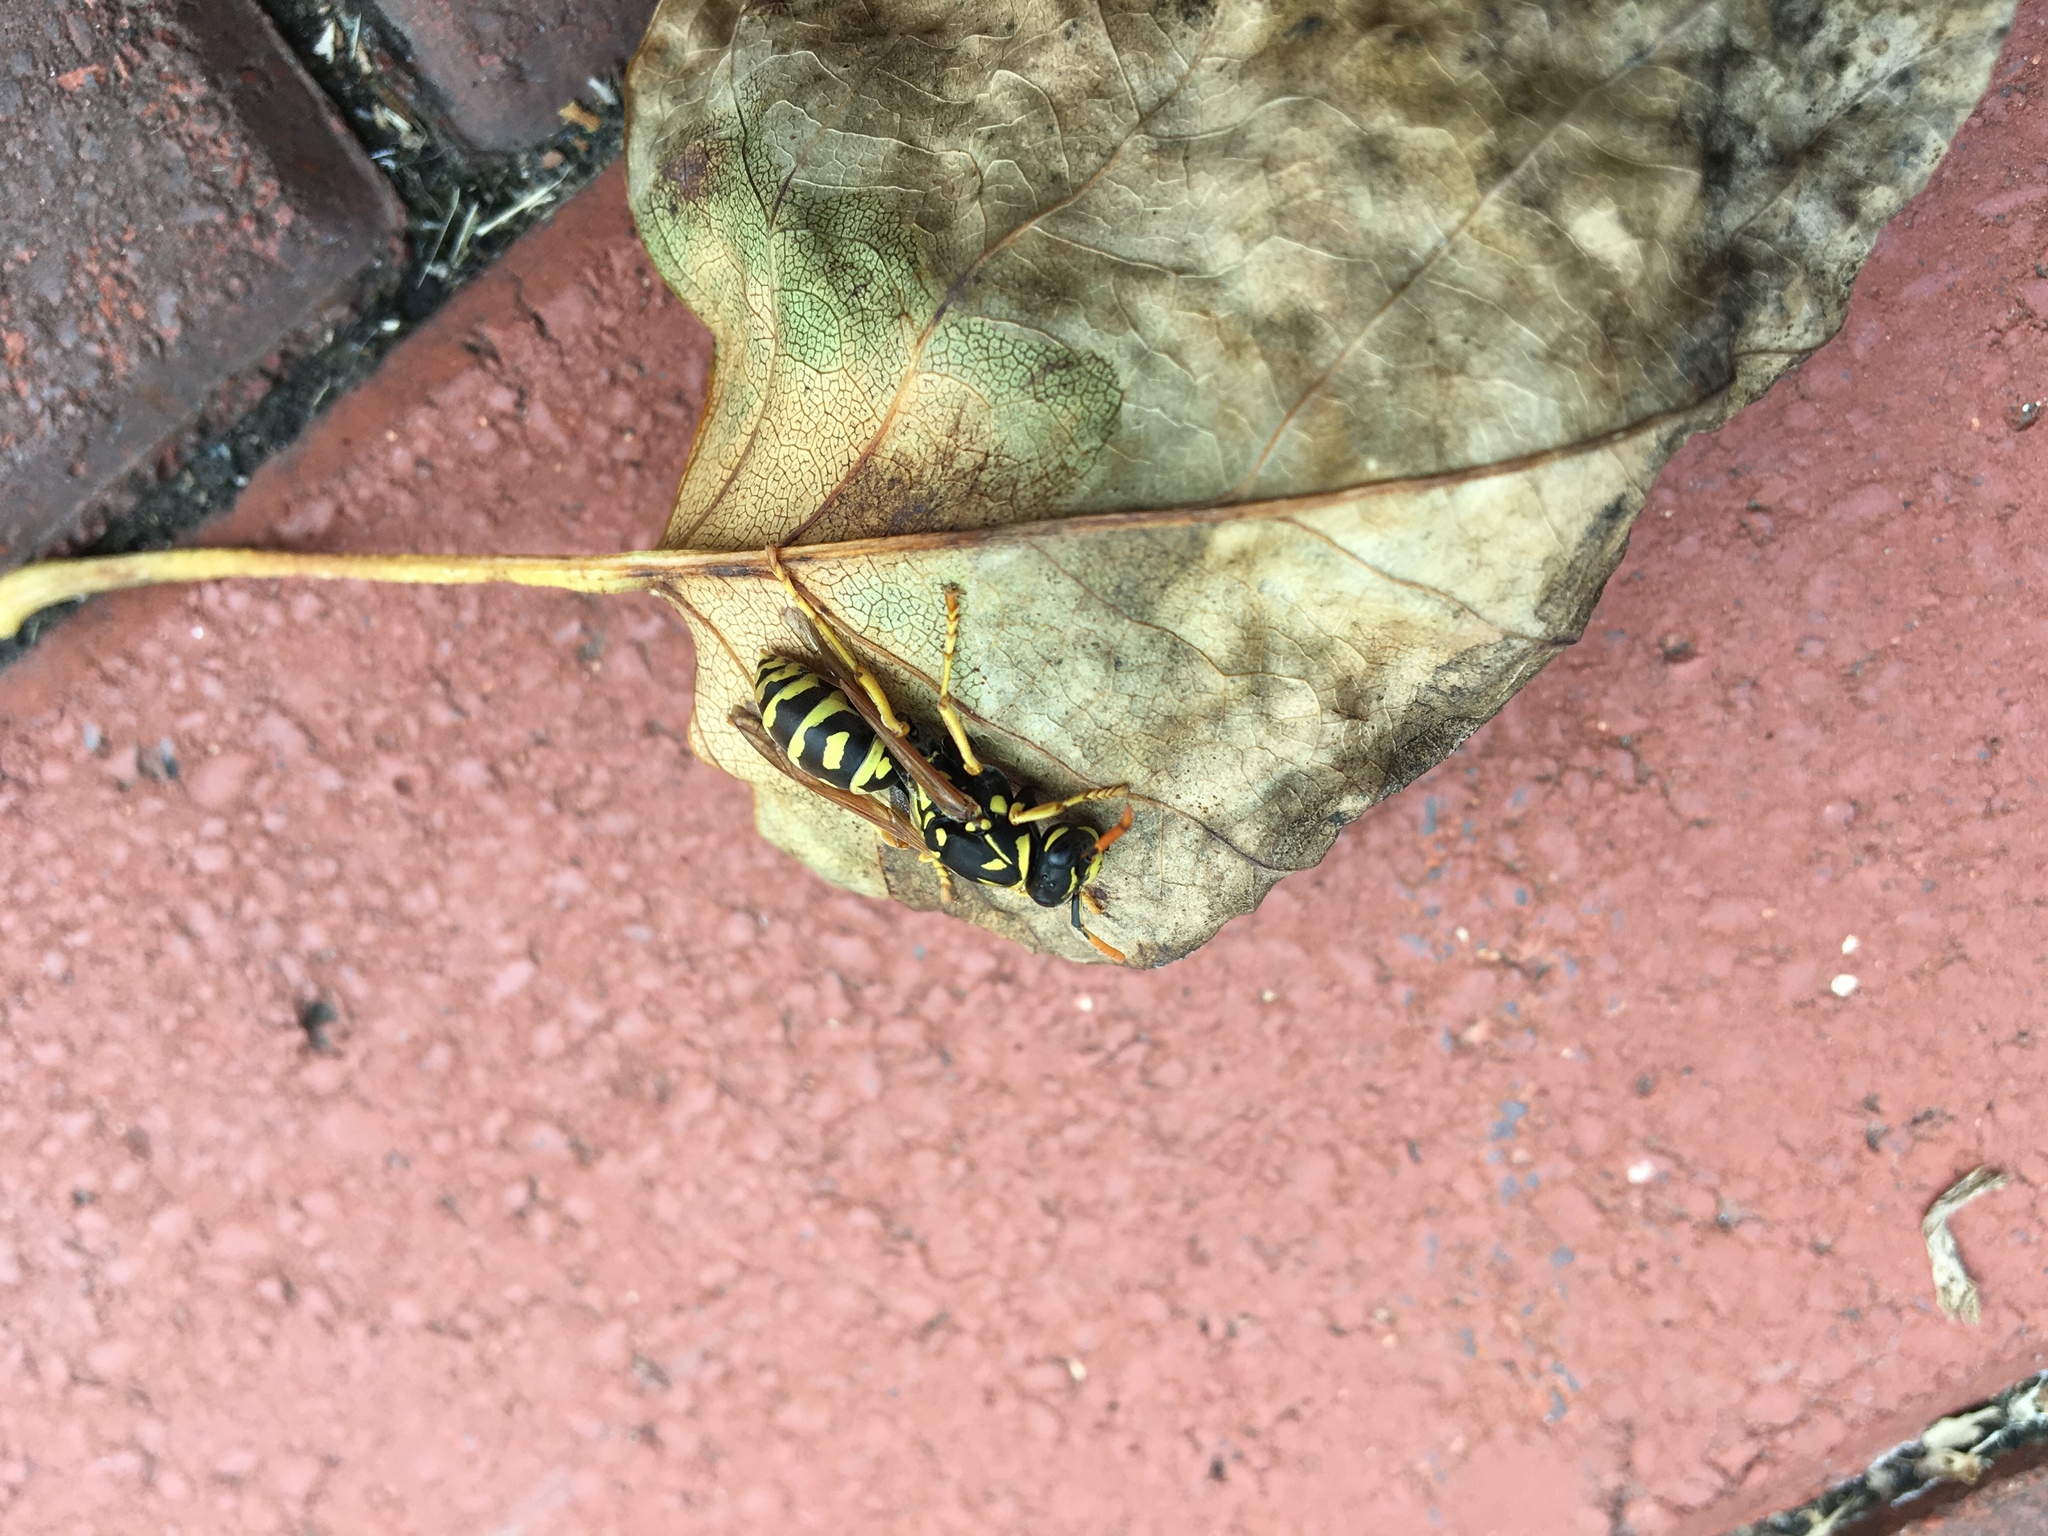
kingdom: Animalia
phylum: Arthropoda
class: Insecta
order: Hymenoptera
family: Eumenidae
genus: Polistes
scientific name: Polistes dominula
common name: Paper wasp
